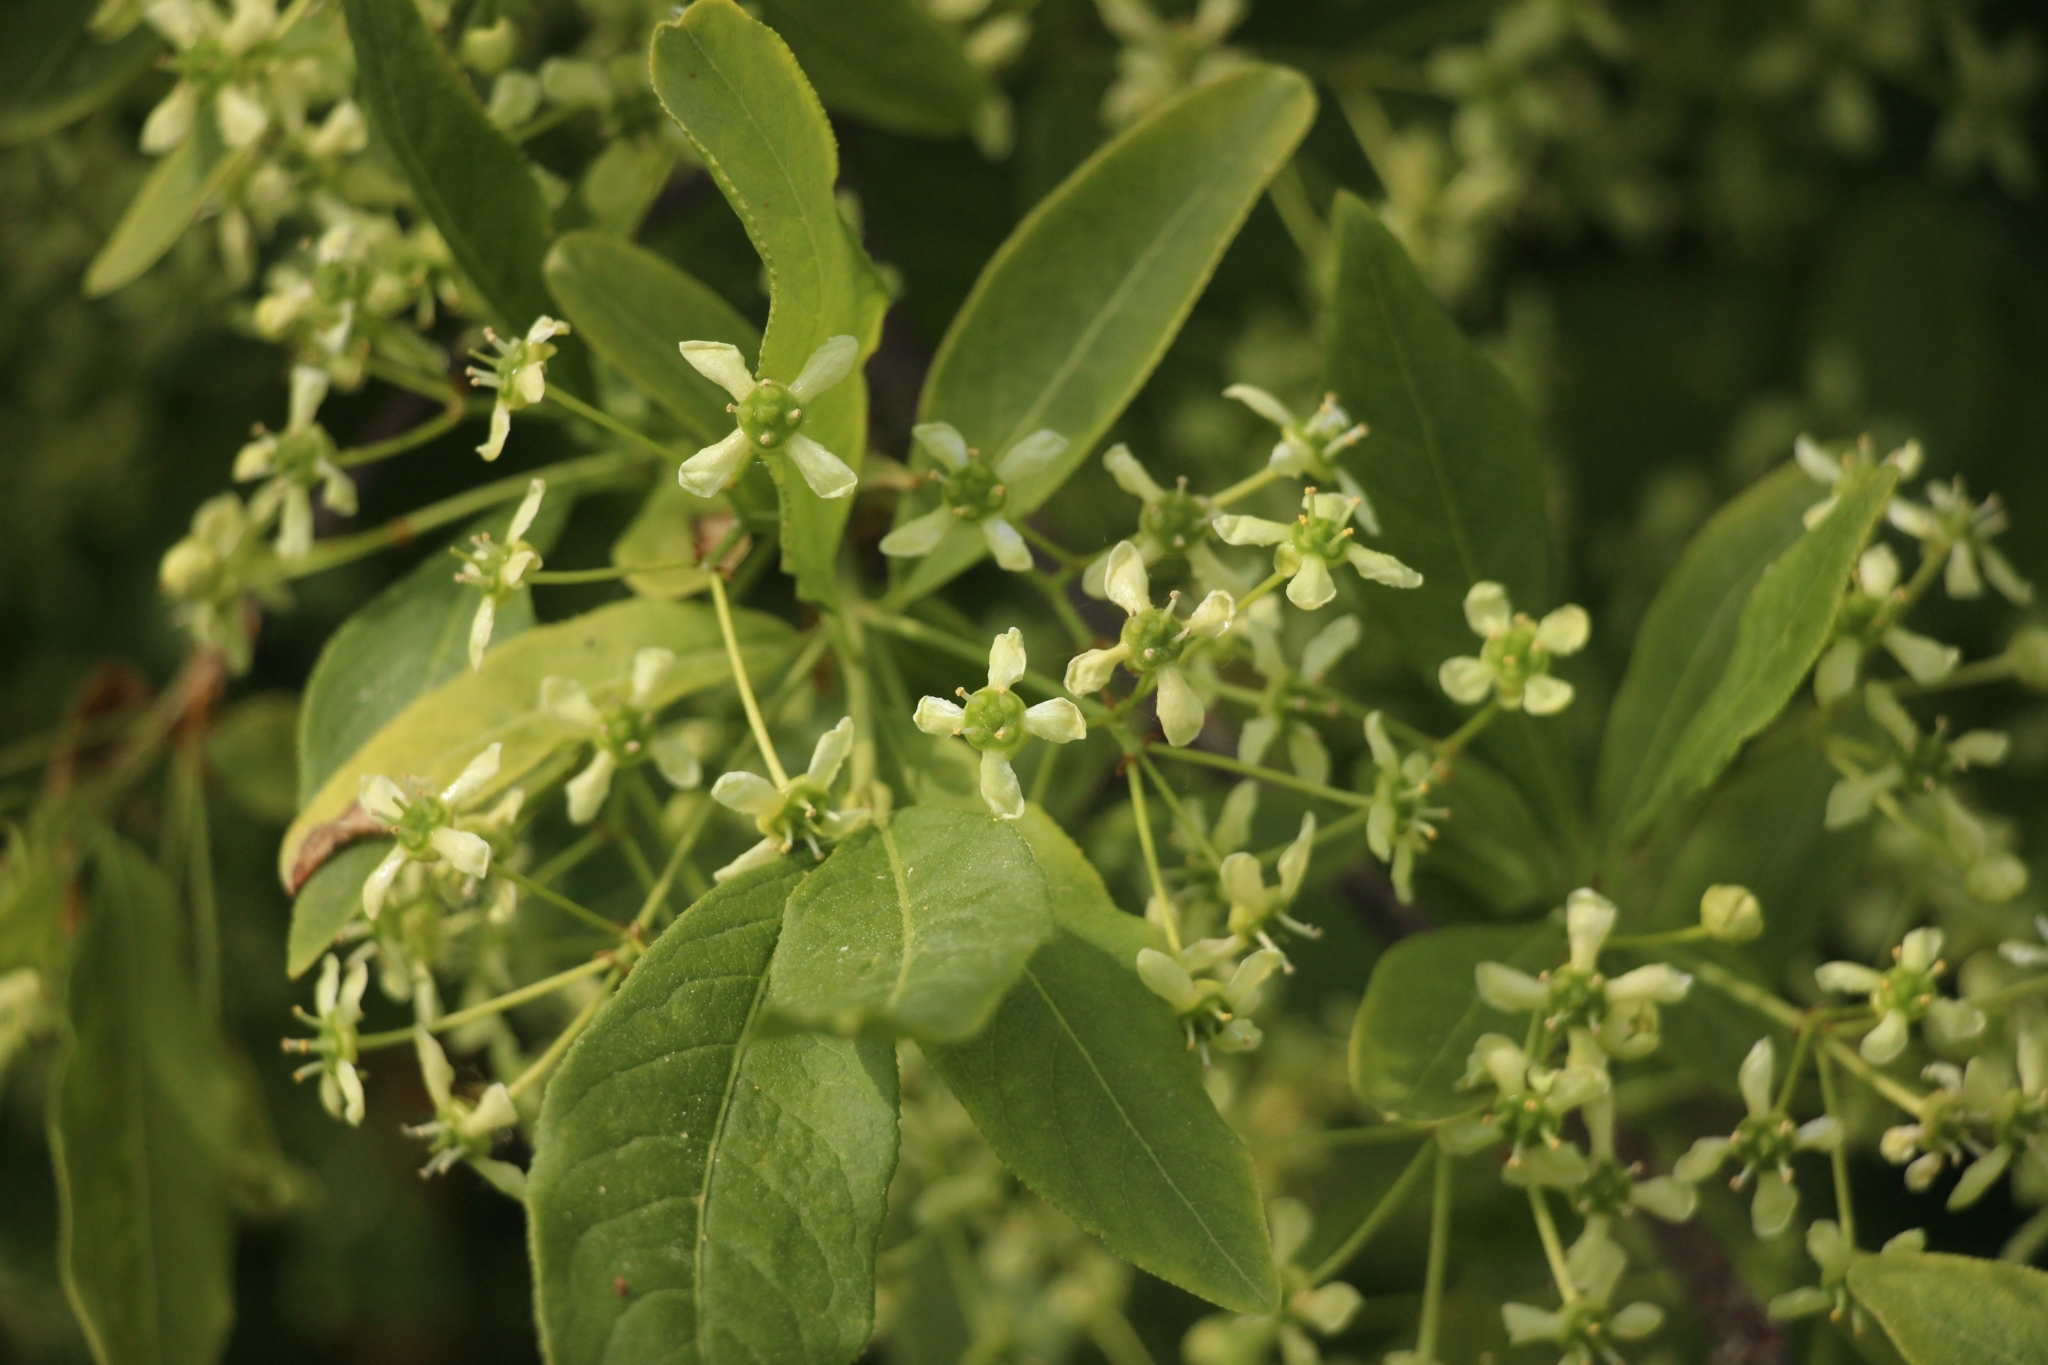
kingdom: Plantae
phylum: Tracheophyta
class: Magnoliopsida
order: Celastrales
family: Celastraceae
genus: Euonymus
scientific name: Euonymus europaeus
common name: Spindle
